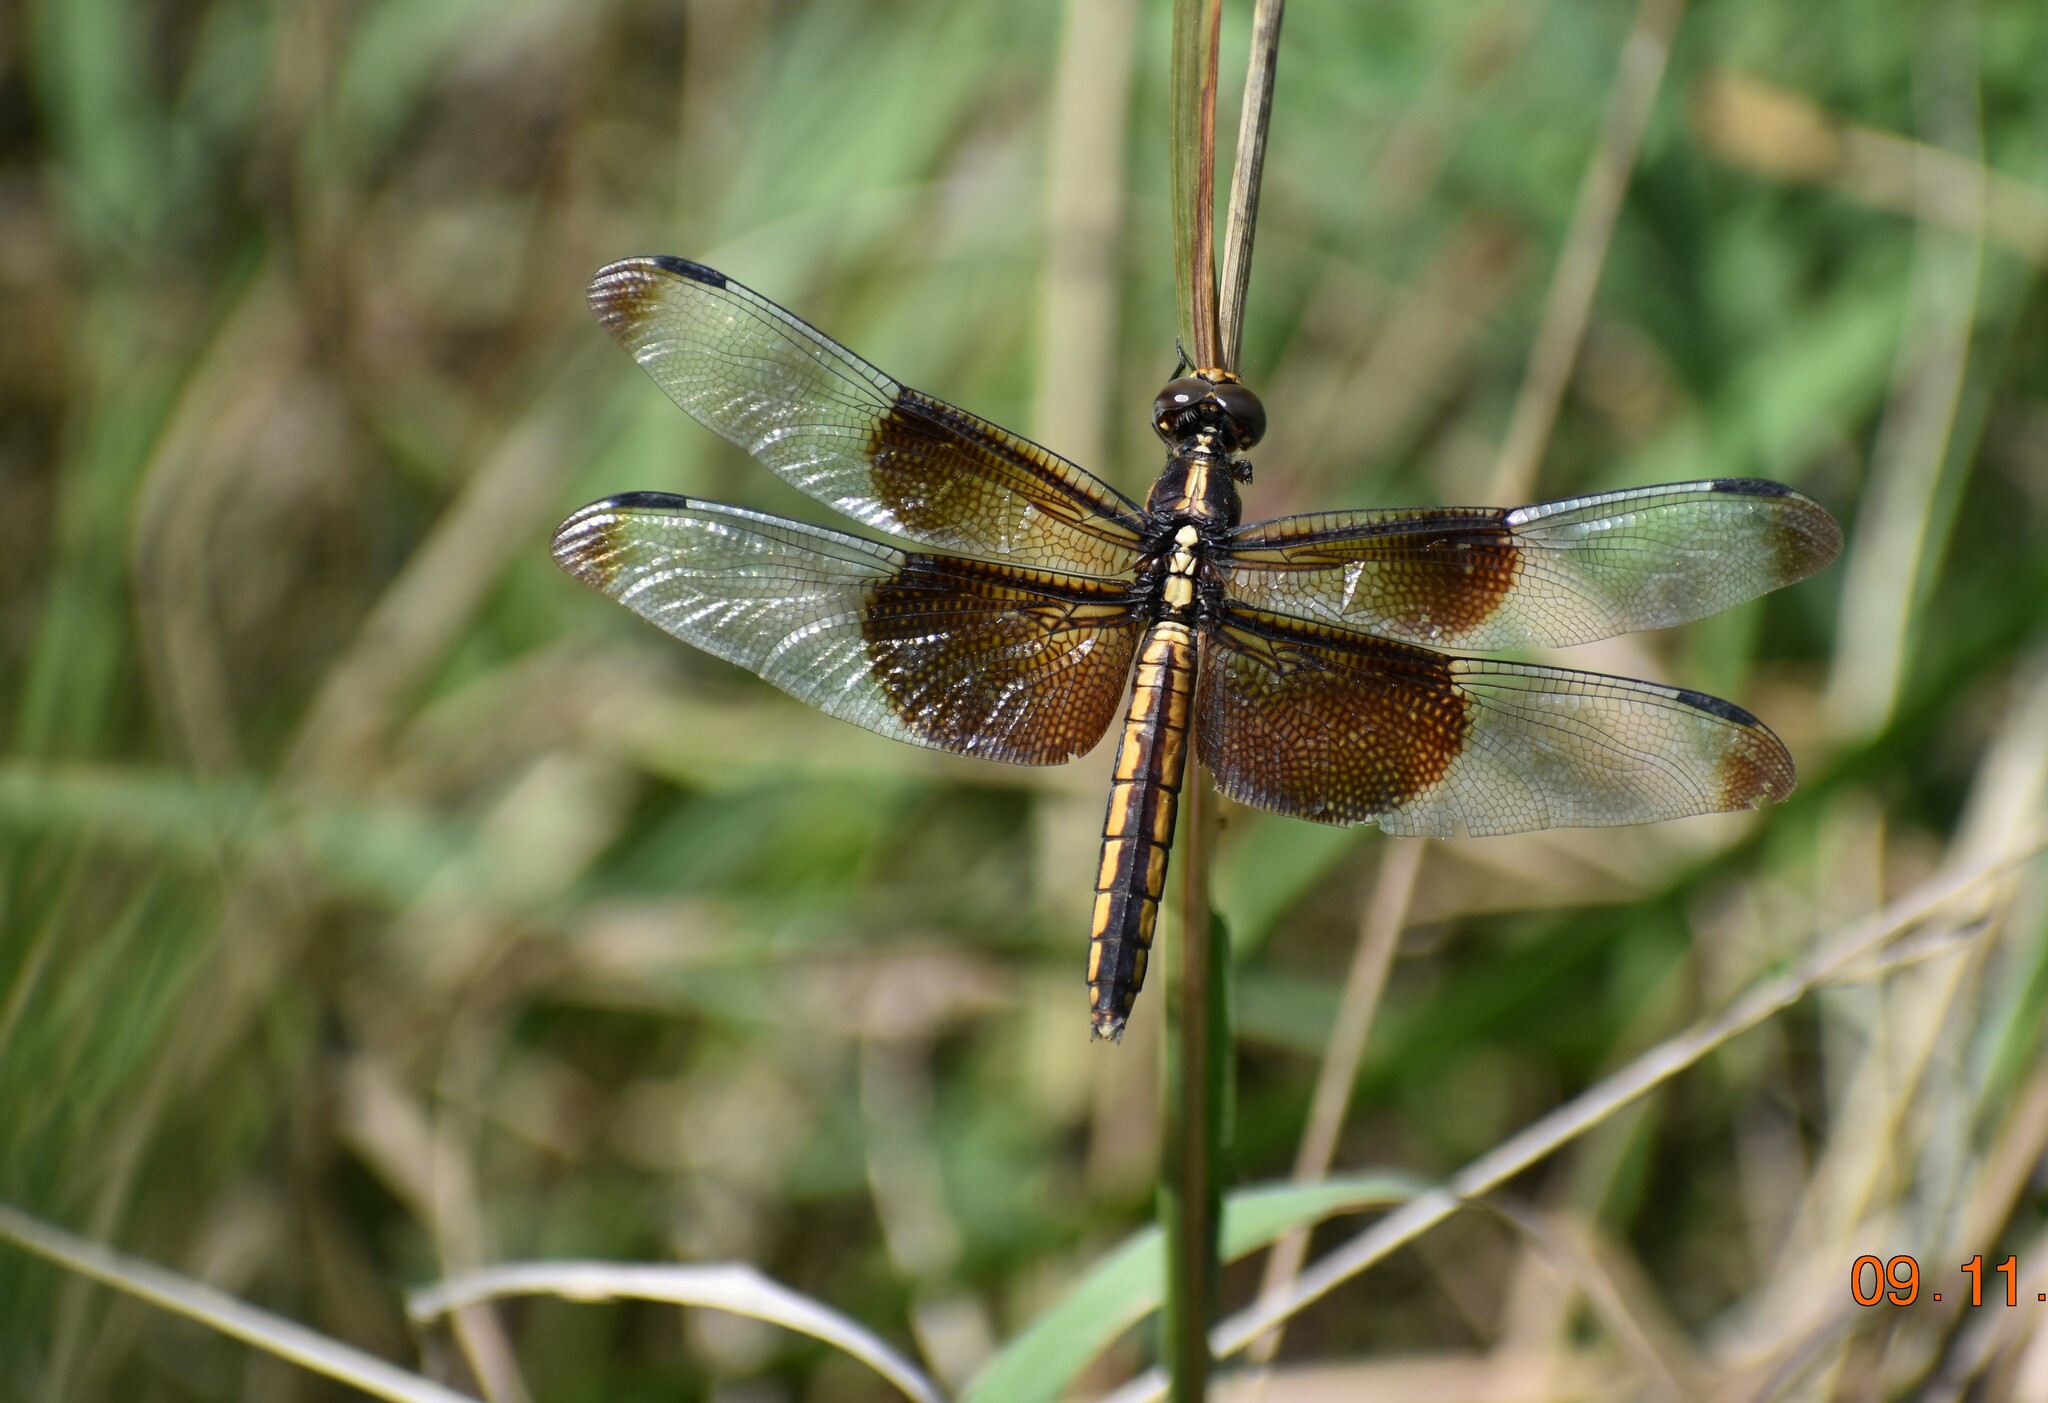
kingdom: Animalia
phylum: Arthropoda
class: Insecta
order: Odonata
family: Libellulidae
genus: Libellula
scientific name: Libellula luctuosa
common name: Widow skimmer
